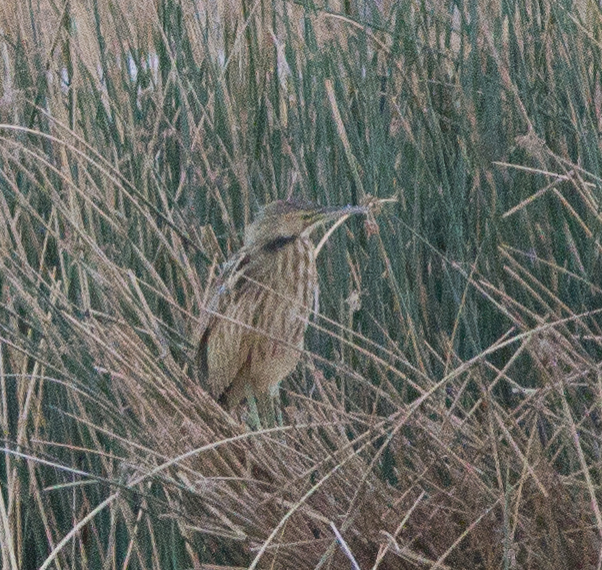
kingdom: Animalia
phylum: Chordata
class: Aves
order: Pelecaniformes
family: Ardeidae
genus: Botaurus
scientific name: Botaurus lentiginosus
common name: American bittern
